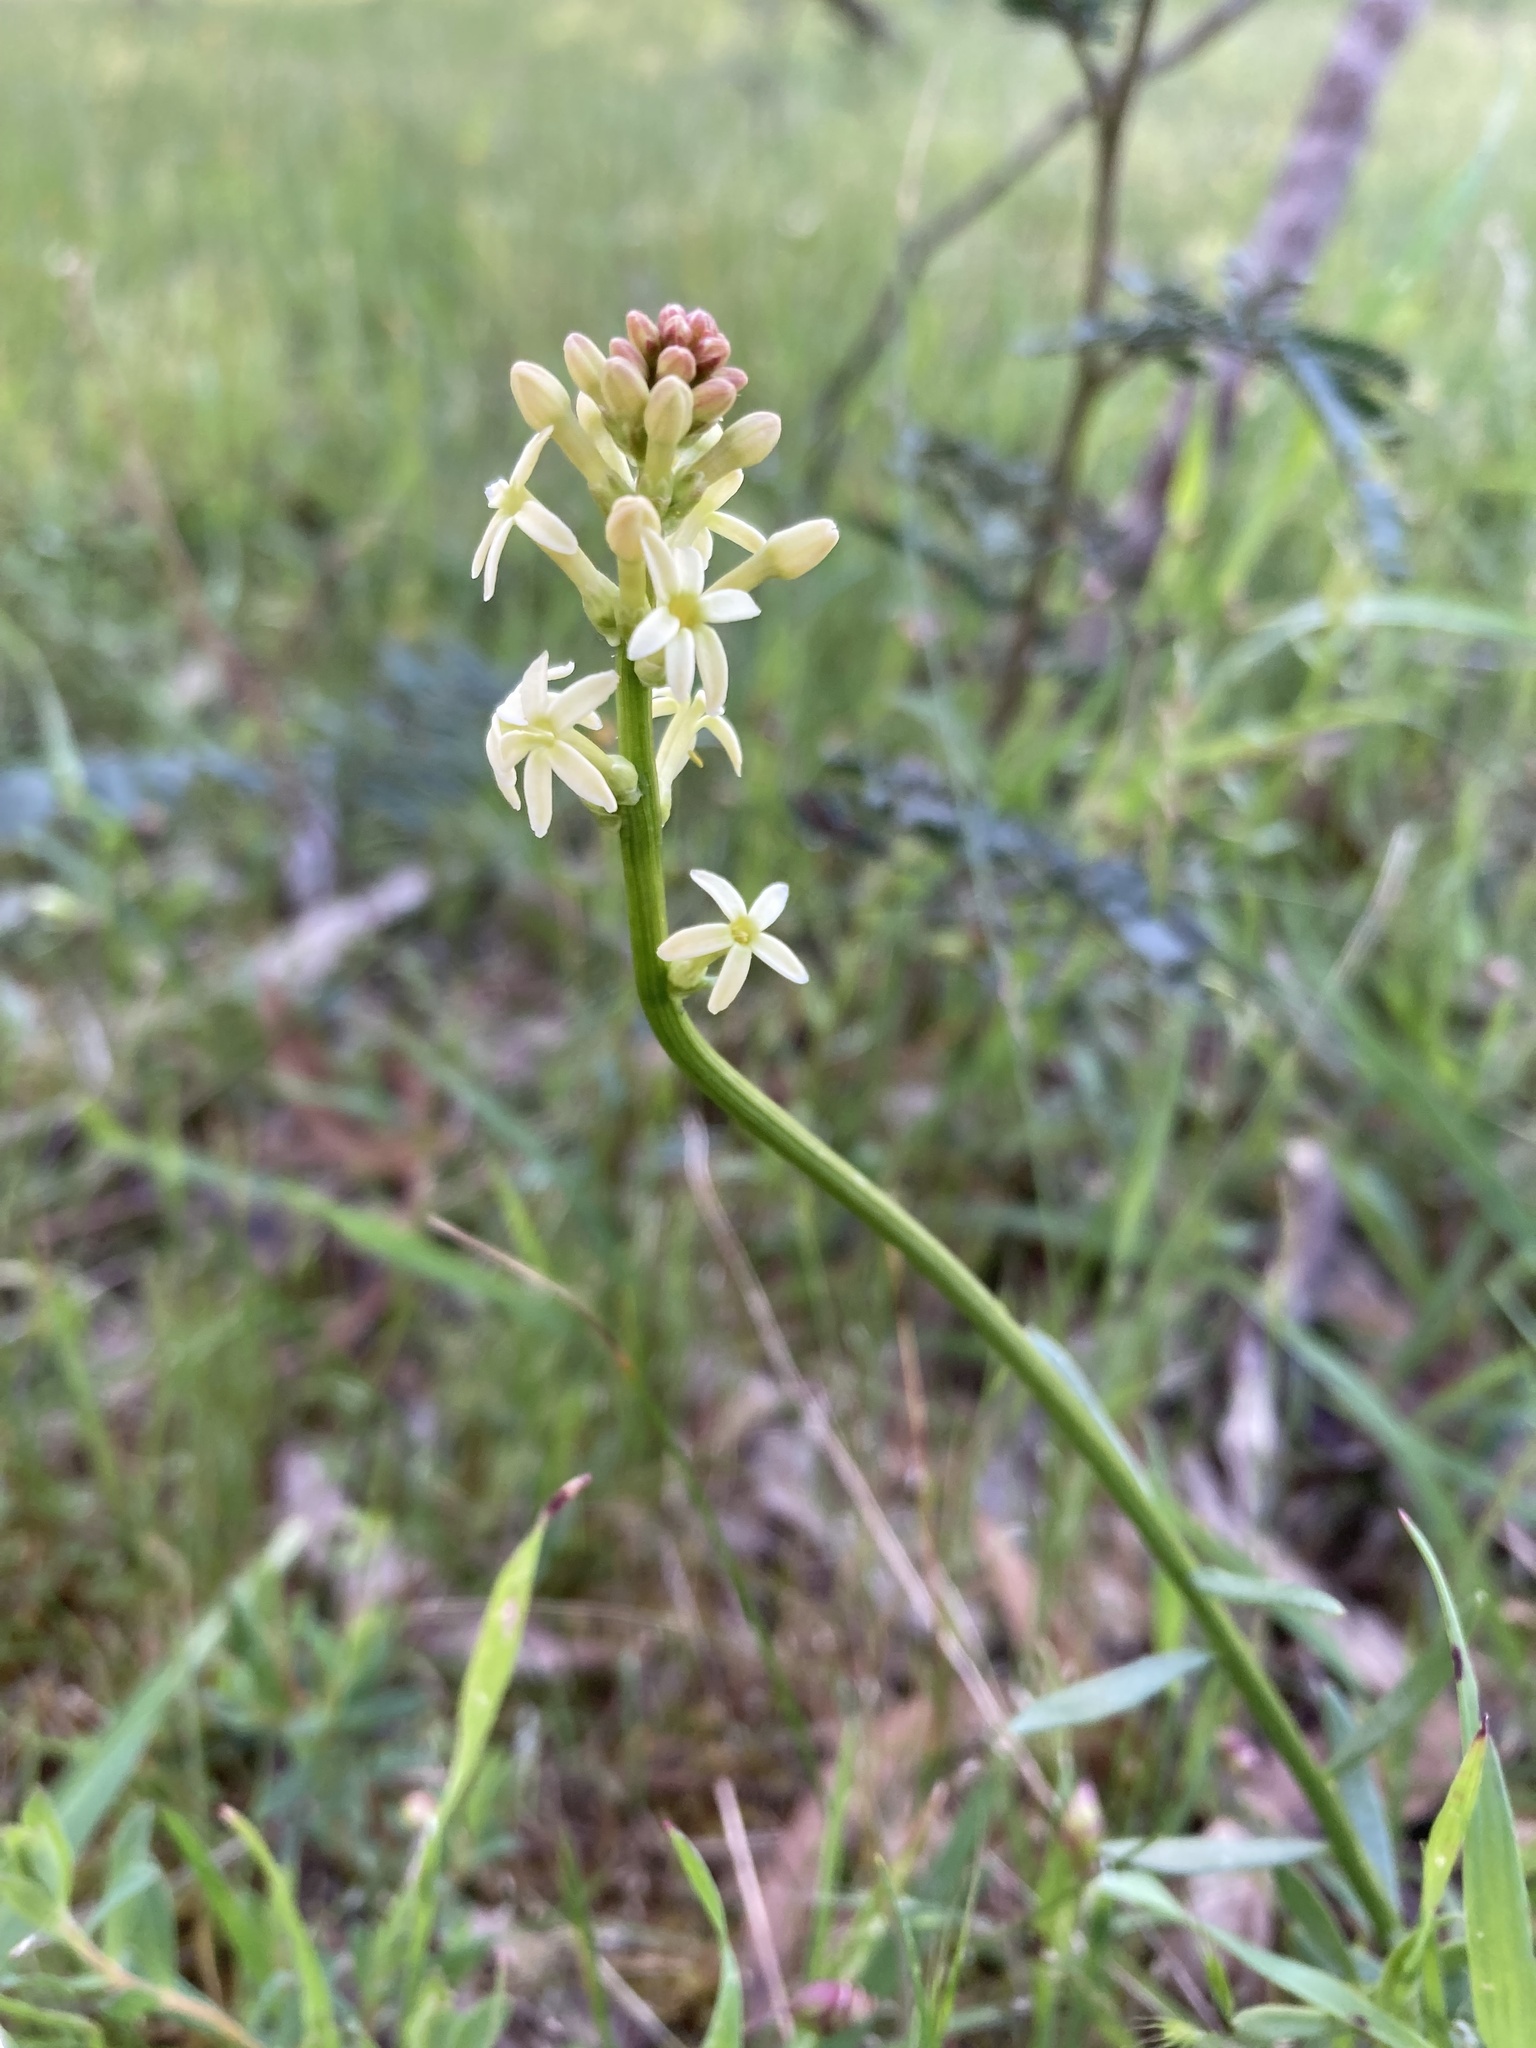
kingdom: Plantae
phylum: Tracheophyta
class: Magnoliopsida
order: Celastrales
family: Celastraceae
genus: Stackhousia
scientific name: Stackhousia monogyna
